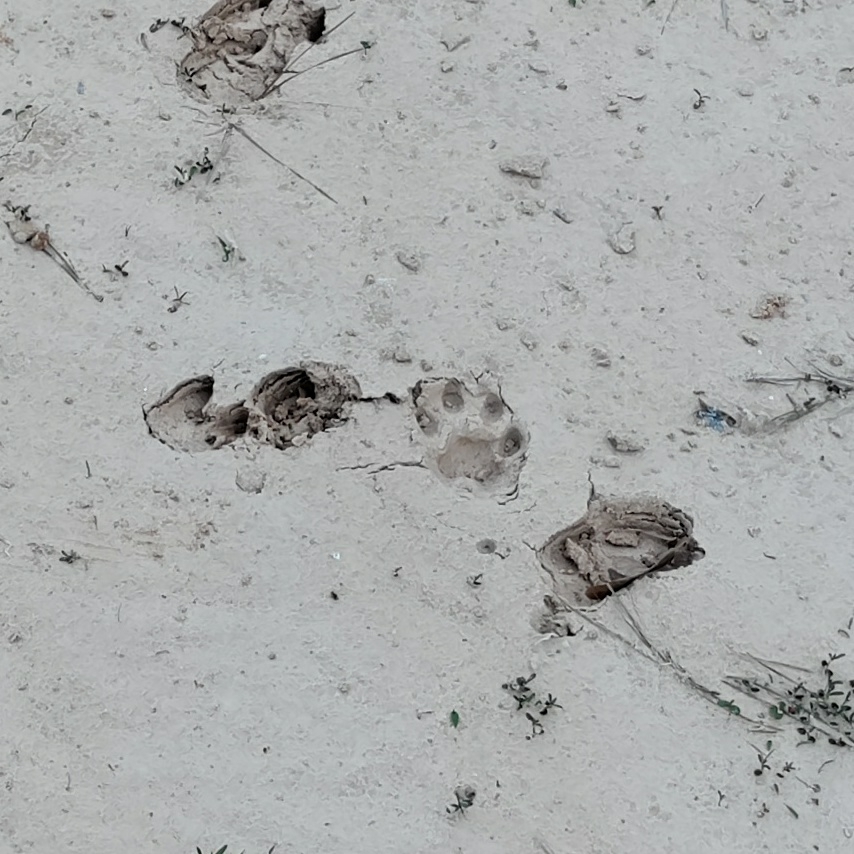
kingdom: Animalia
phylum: Chordata
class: Mammalia
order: Carnivora
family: Felidae
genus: Lynx
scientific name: Lynx rufus
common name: Bobcat
